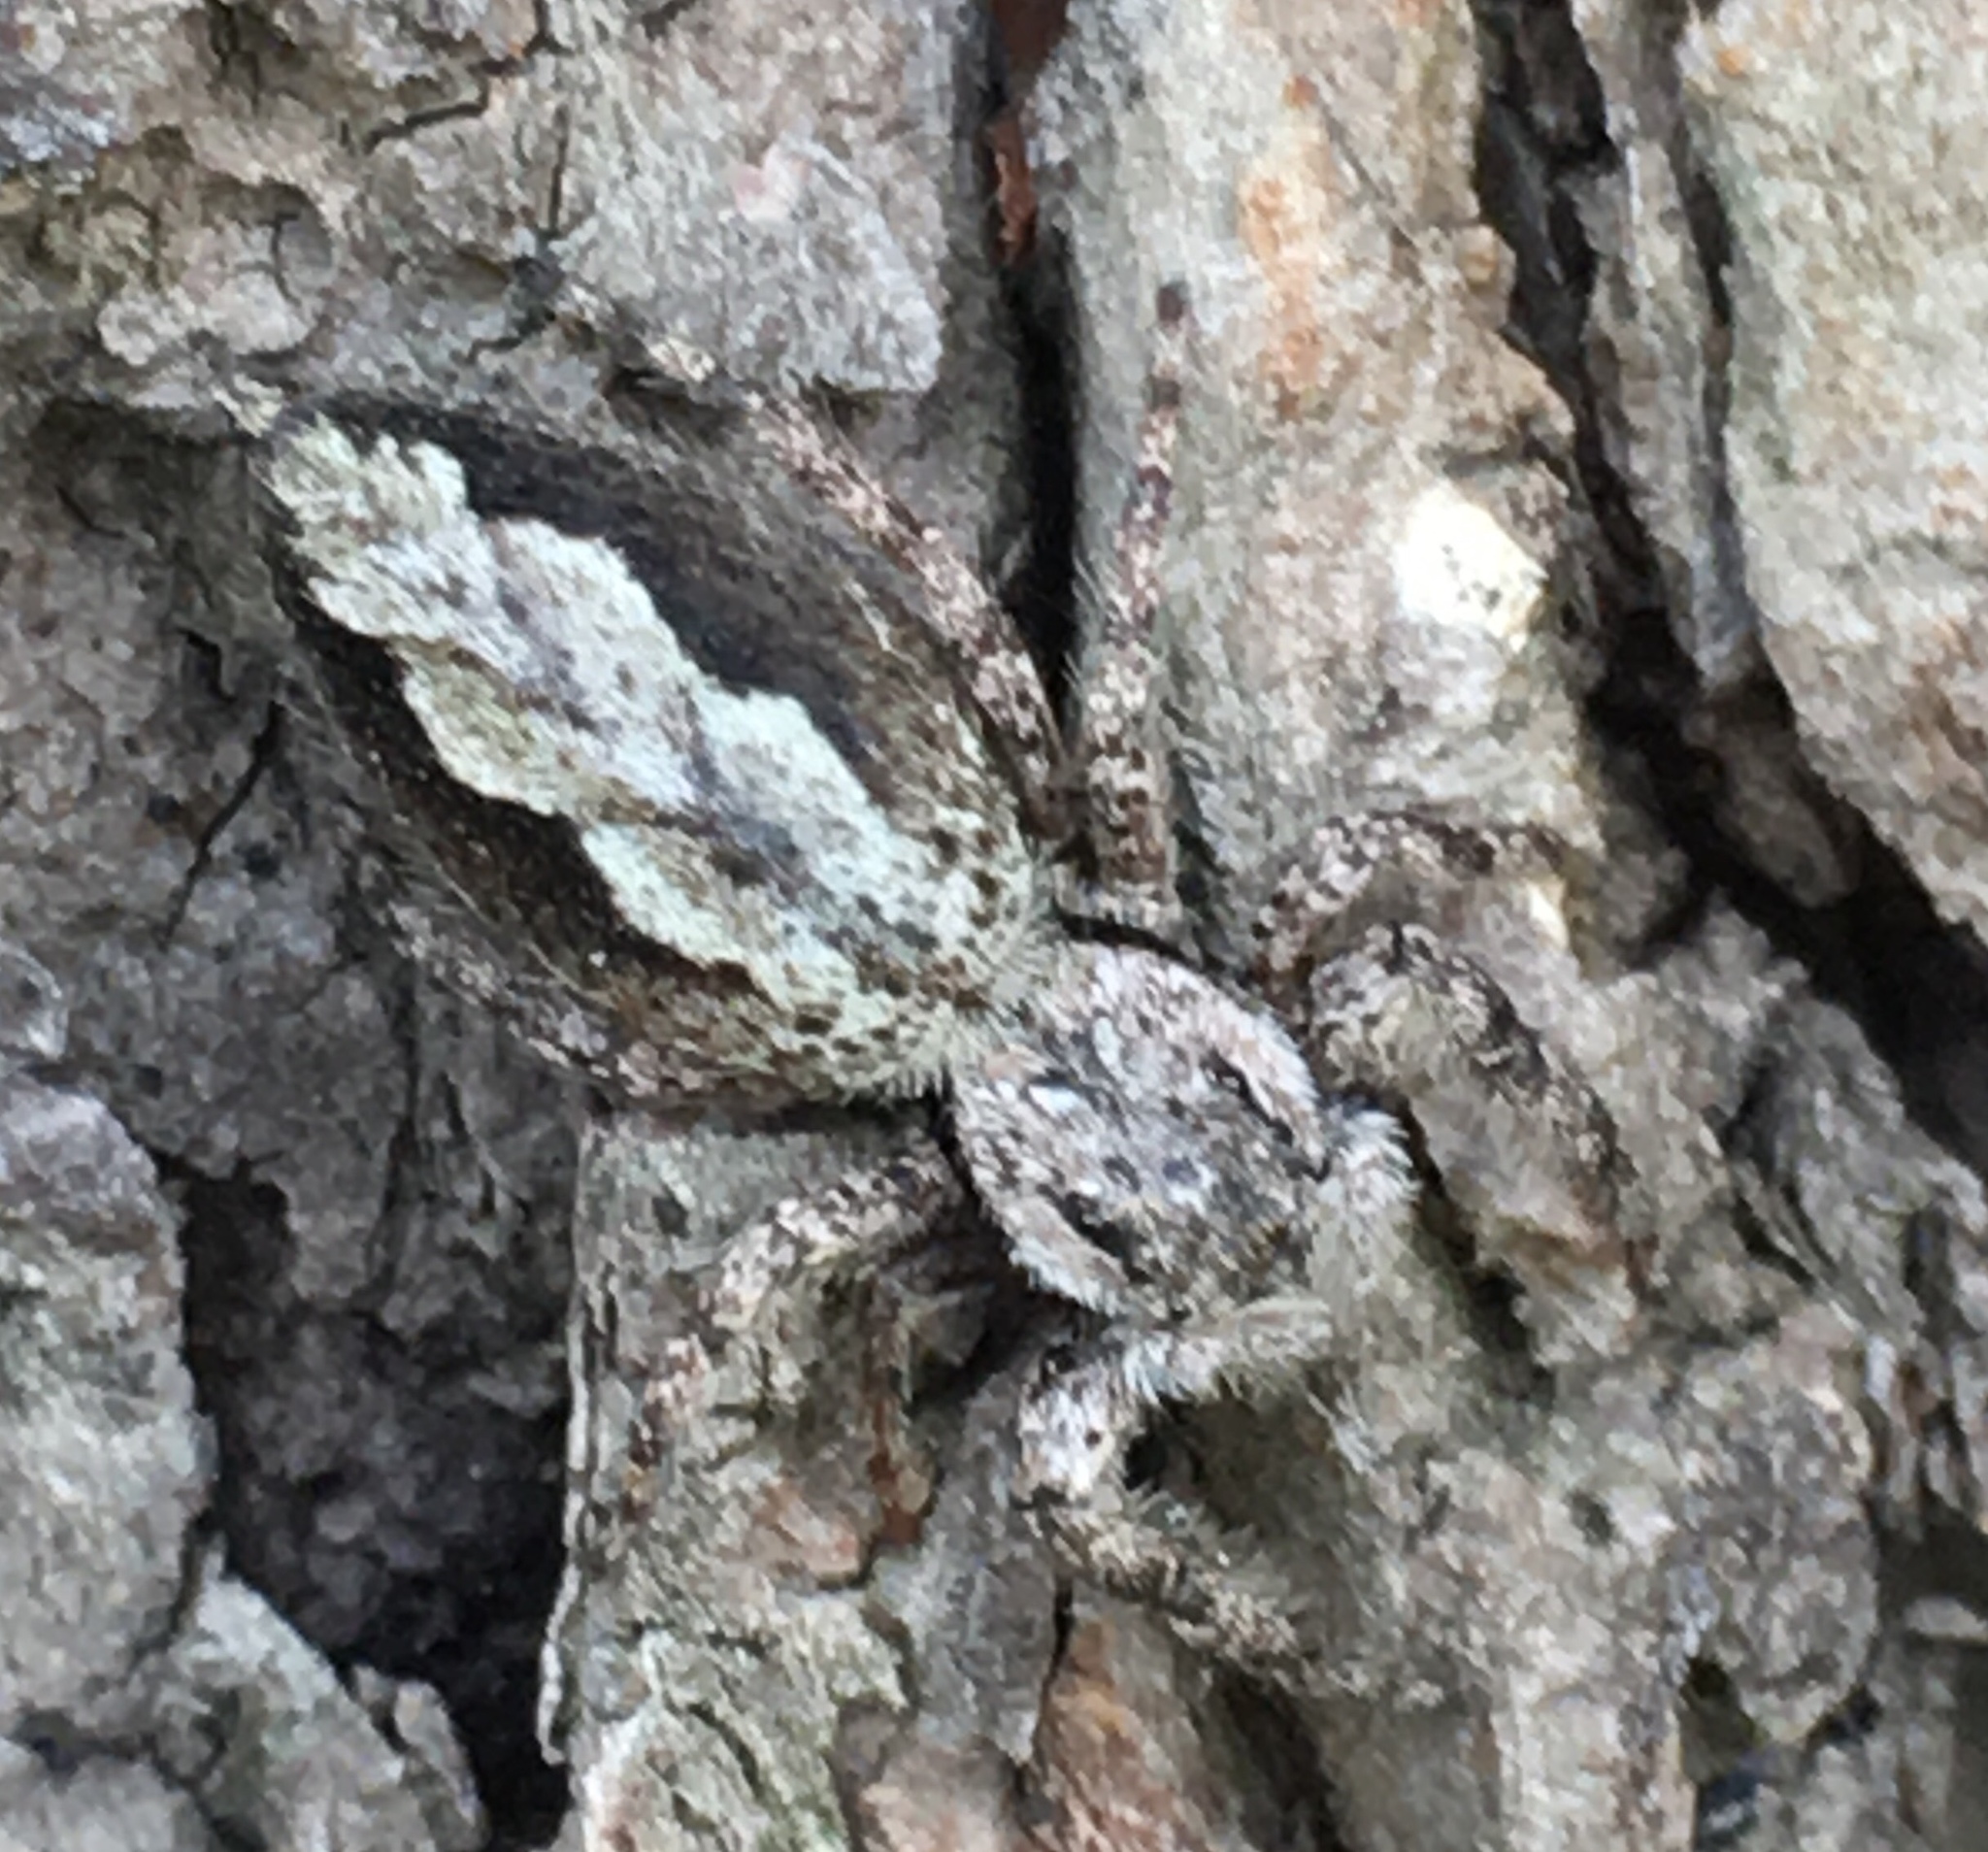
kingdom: Animalia
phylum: Arthropoda
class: Arachnida
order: Araneae
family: Salticidae
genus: Platycryptus
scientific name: Platycryptus undatus
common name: Tan jumping spider
